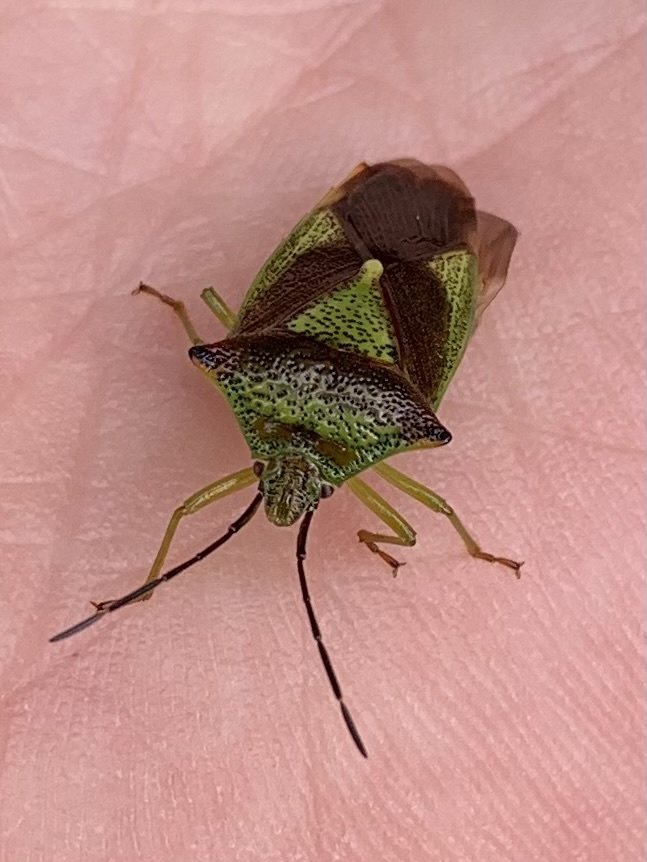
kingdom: Animalia
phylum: Arthropoda
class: Insecta
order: Hemiptera
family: Acanthosomatidae
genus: Acanthosoma
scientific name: Acanthosoma haemorrhoidale
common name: Hawthorn shieldbug
